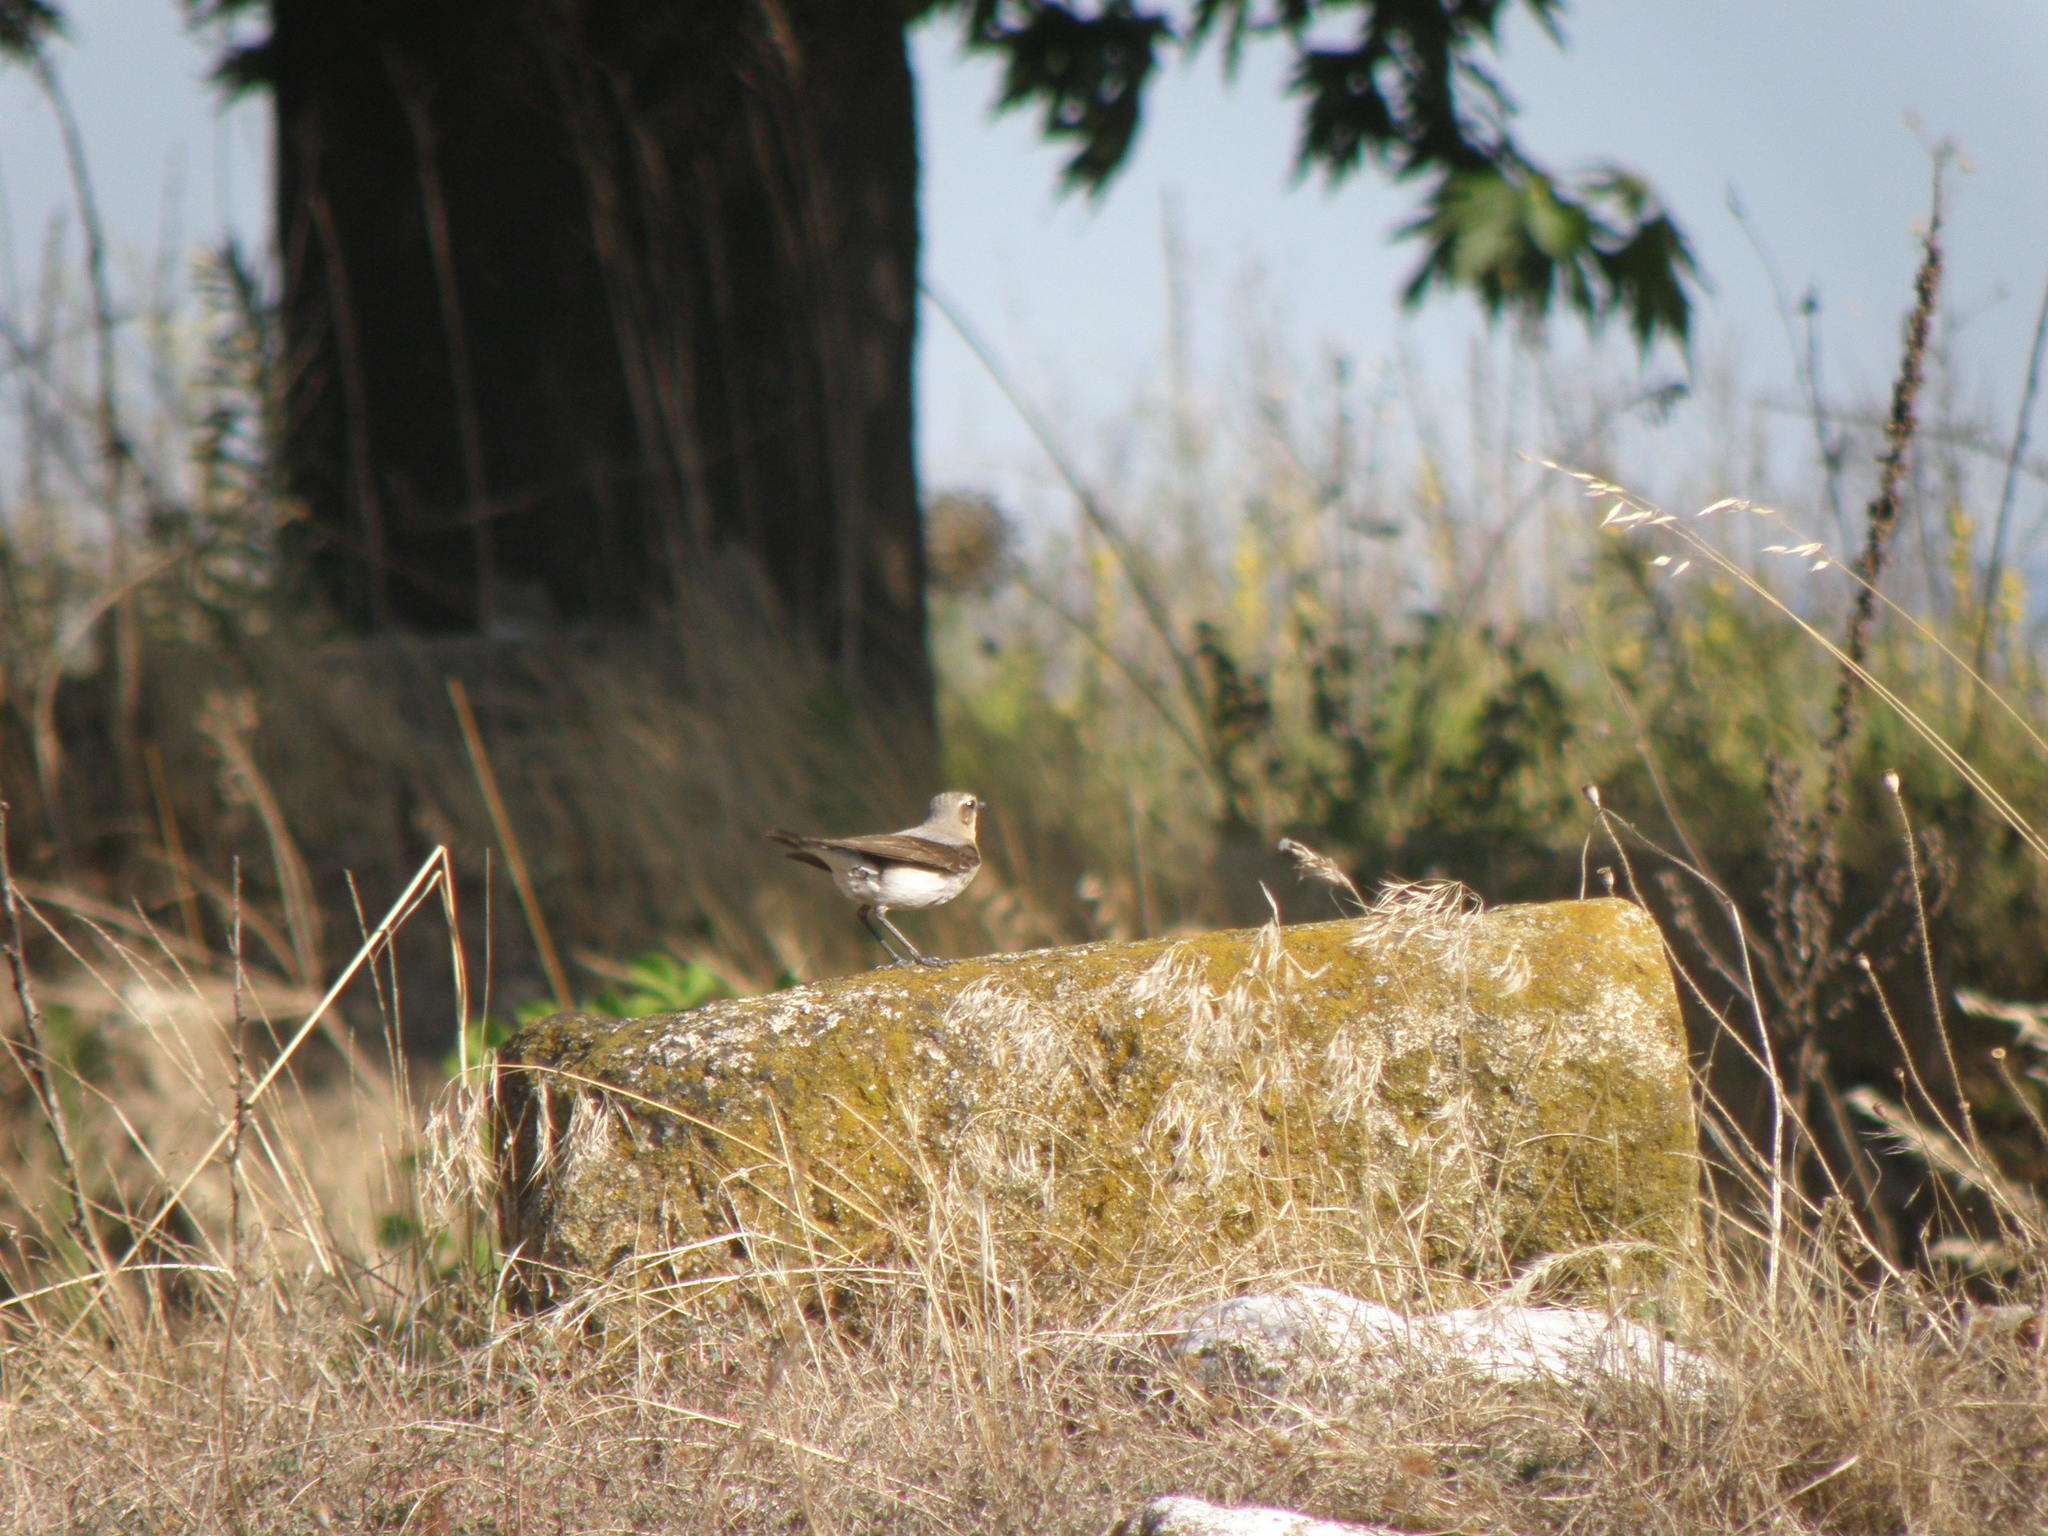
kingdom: Animalia
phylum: Chordata
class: Aves
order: Passeriformes
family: Muscicapidae
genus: Oenanthe
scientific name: Oenanthe oenanthe
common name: Northern wheatear
